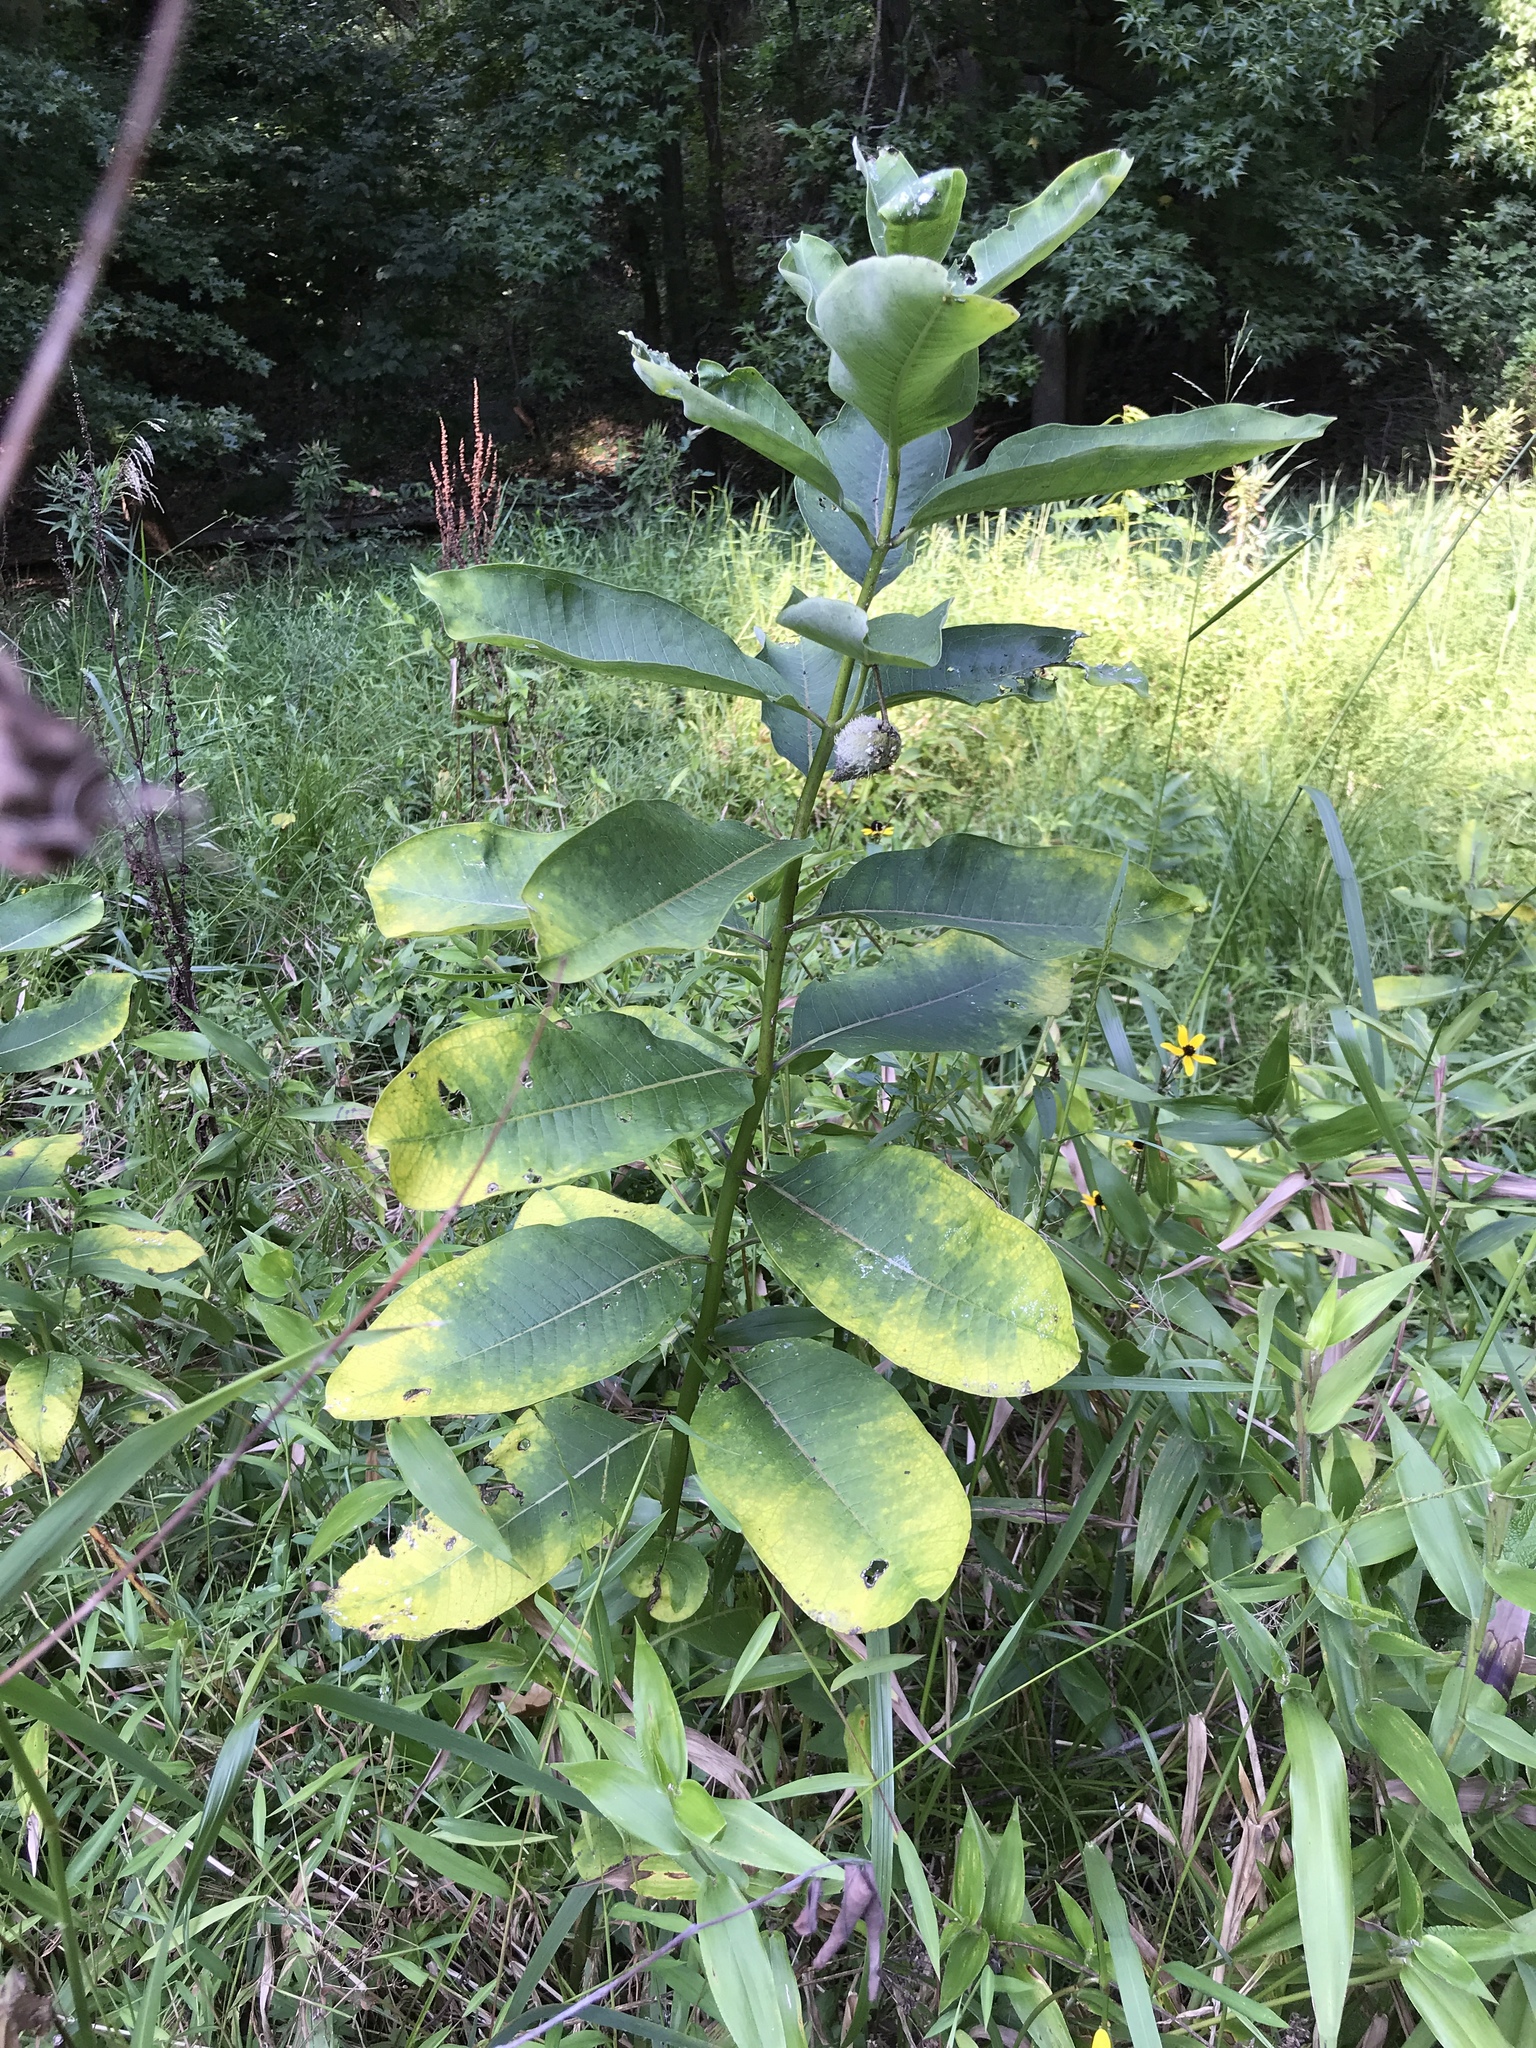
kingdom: Plantae
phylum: Tracheophyta
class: Magnoliopsida
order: Gentianales
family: Apocynaceae
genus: Asclepias
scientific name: Asclepias syriaca
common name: Common milkweed
